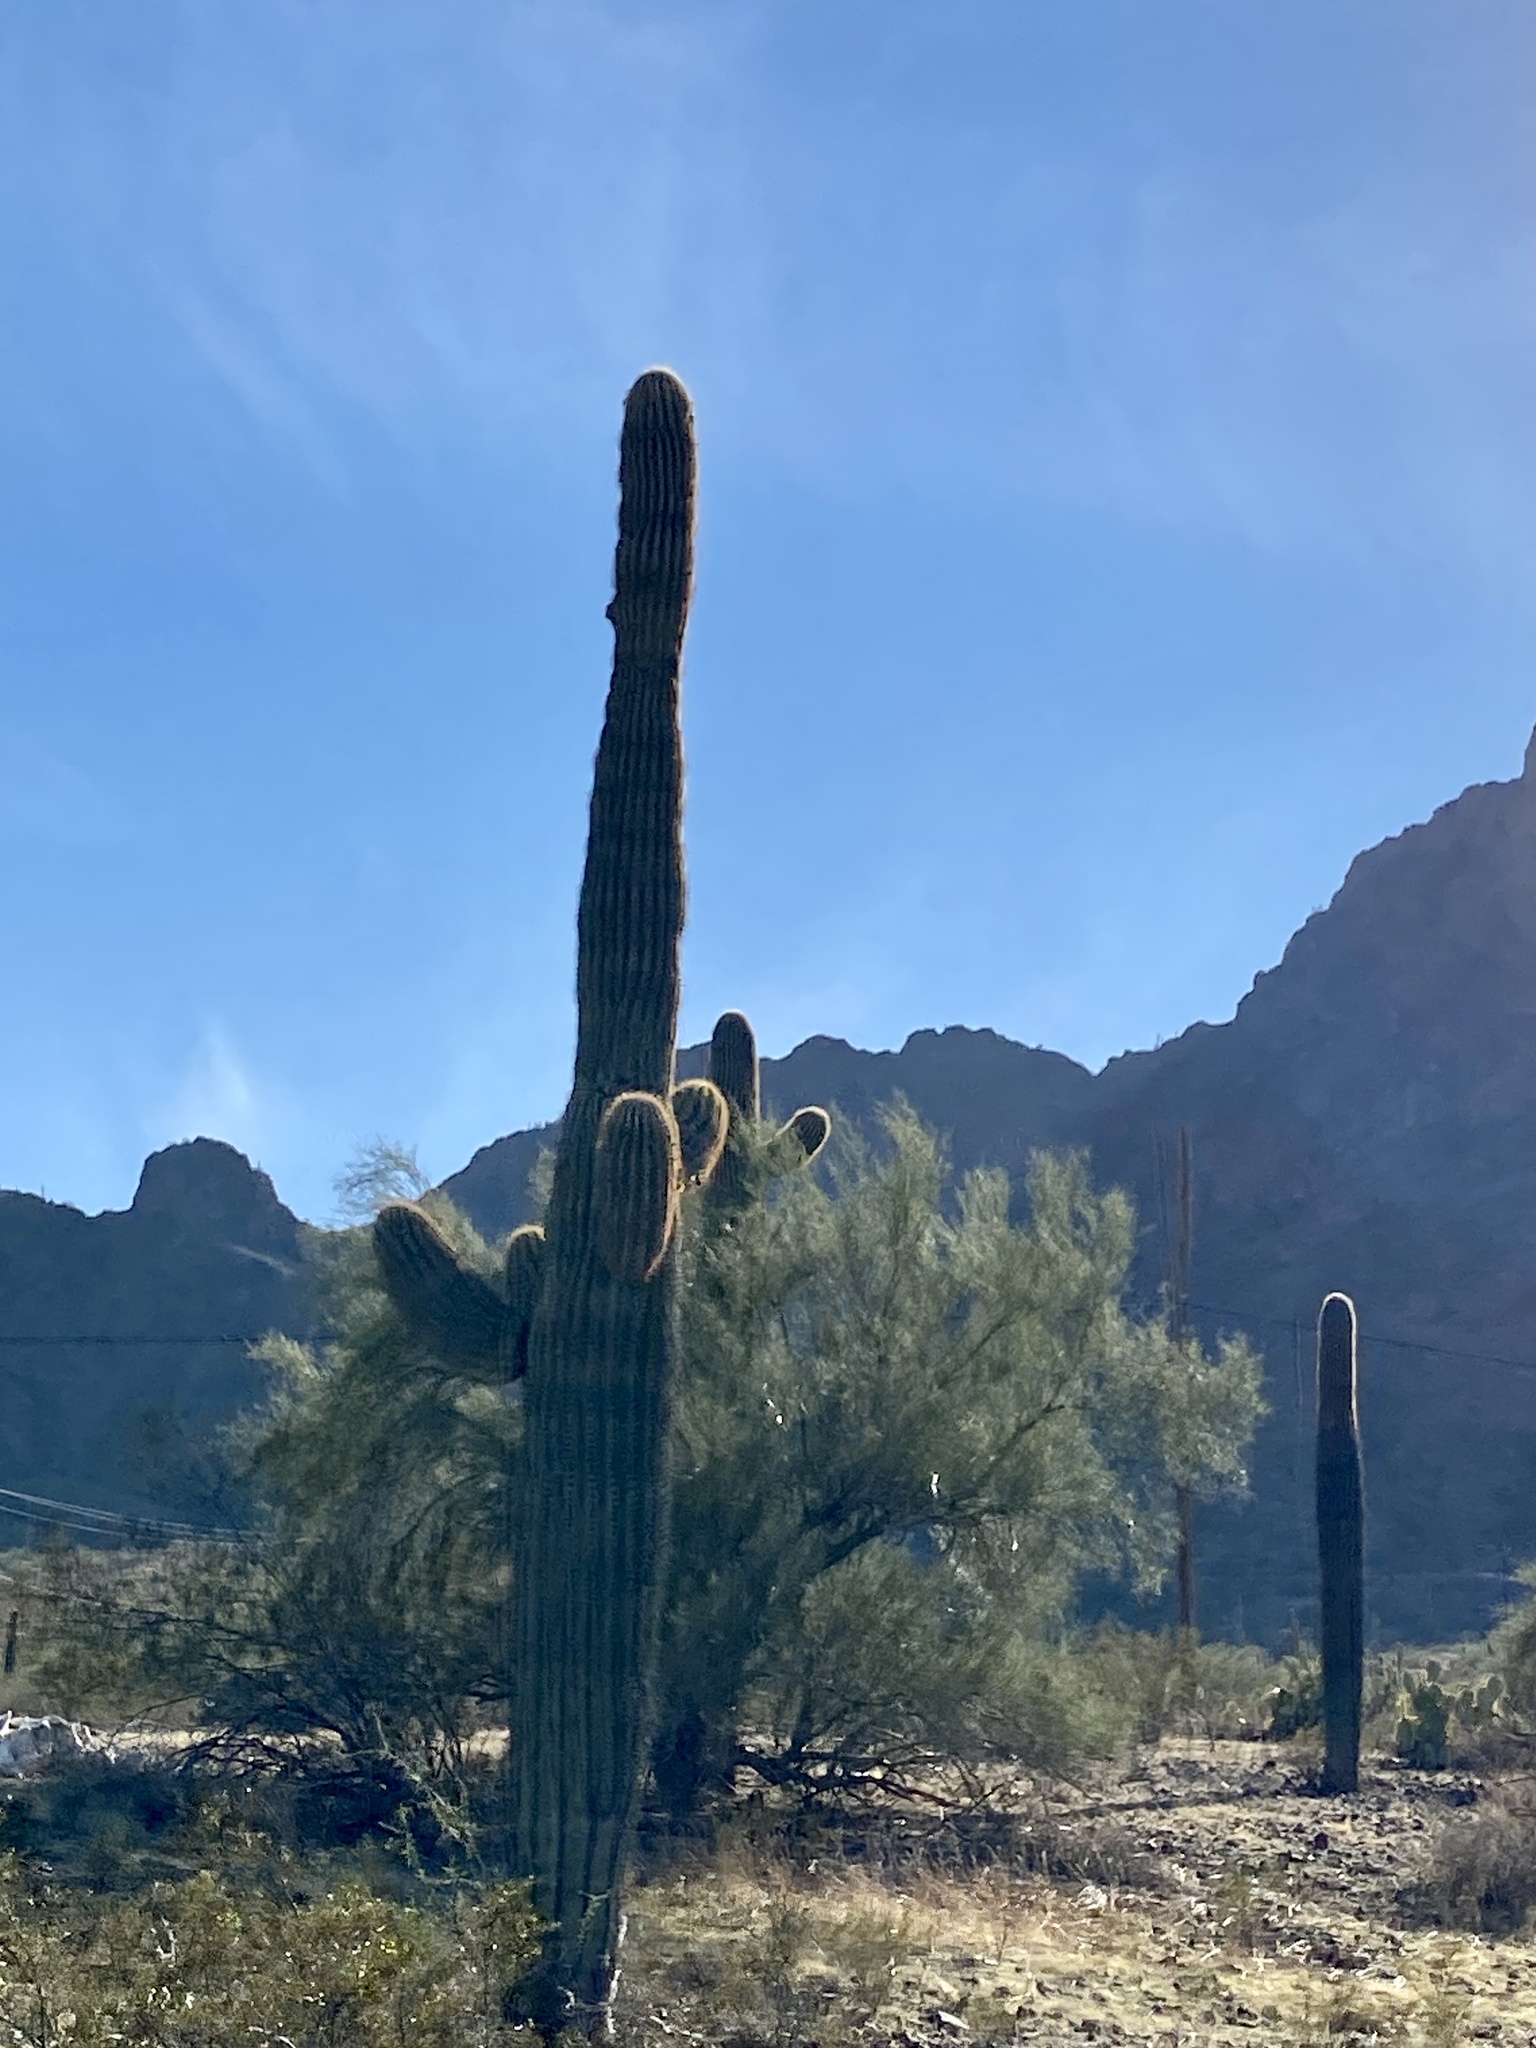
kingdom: Plantae
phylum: Tracheophyta
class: Magnoliopsida
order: Caryophyllales
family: Cactaceae
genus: Carnegiea
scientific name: Carnegiea gigantea
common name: Saguaro
